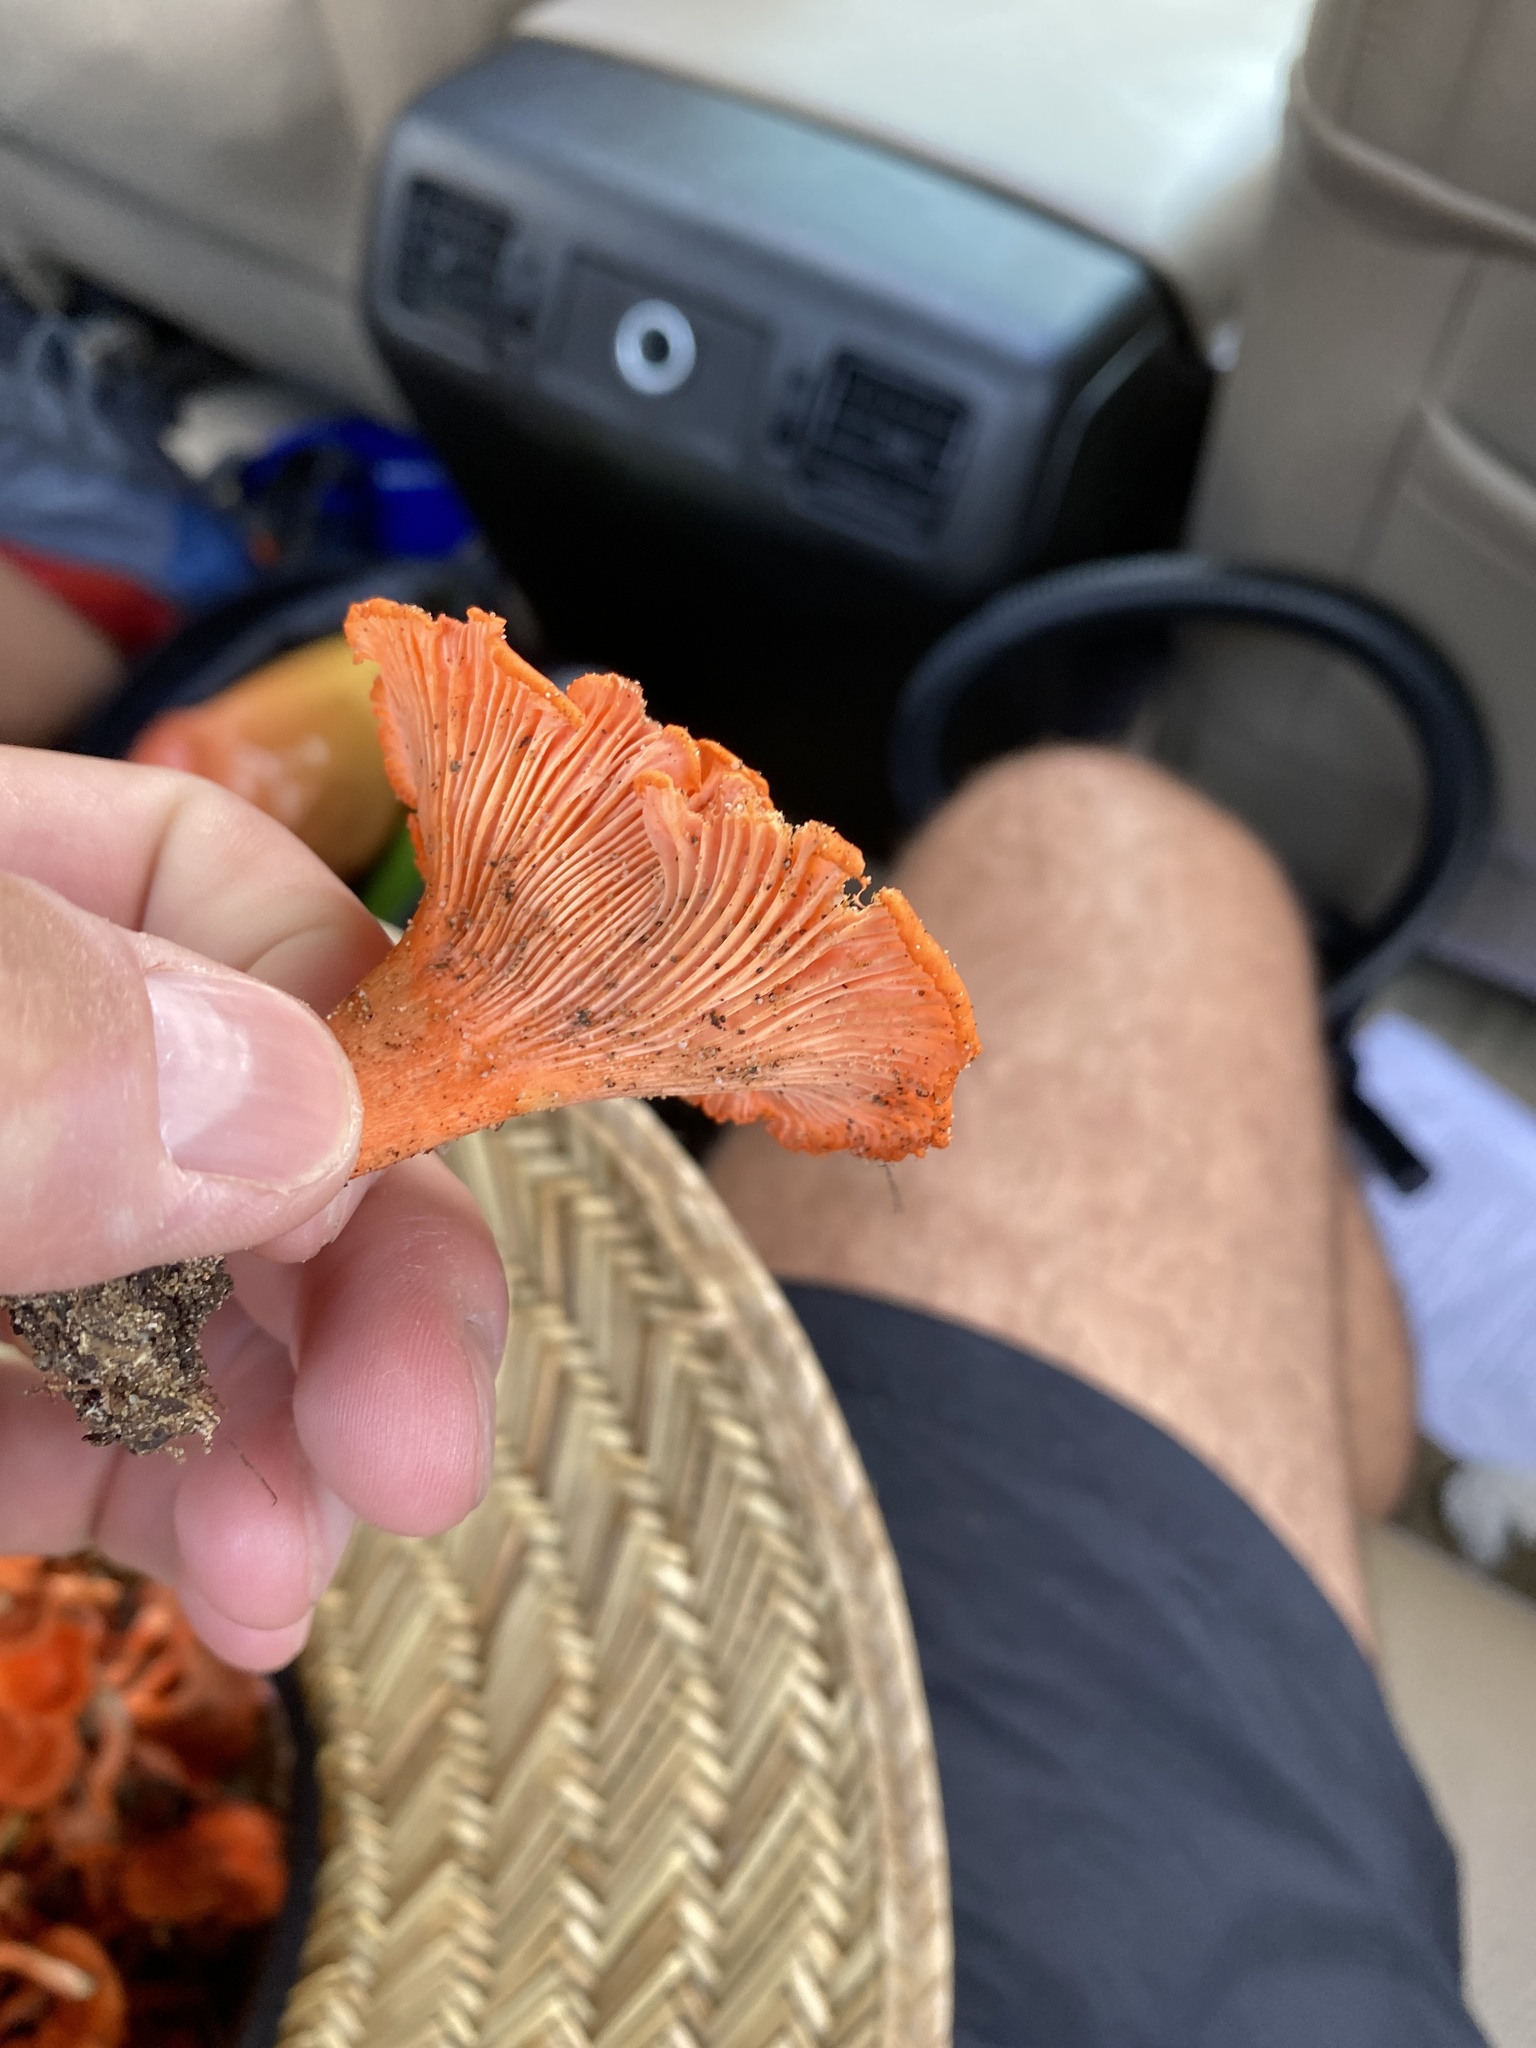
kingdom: Fungi
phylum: Basidiomycota
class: Agaricomycetes
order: Cantharellales
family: Hydnaceae
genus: Cantharellus
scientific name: Cantharellus cinnabarinus
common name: Cinnabar chanterelle
